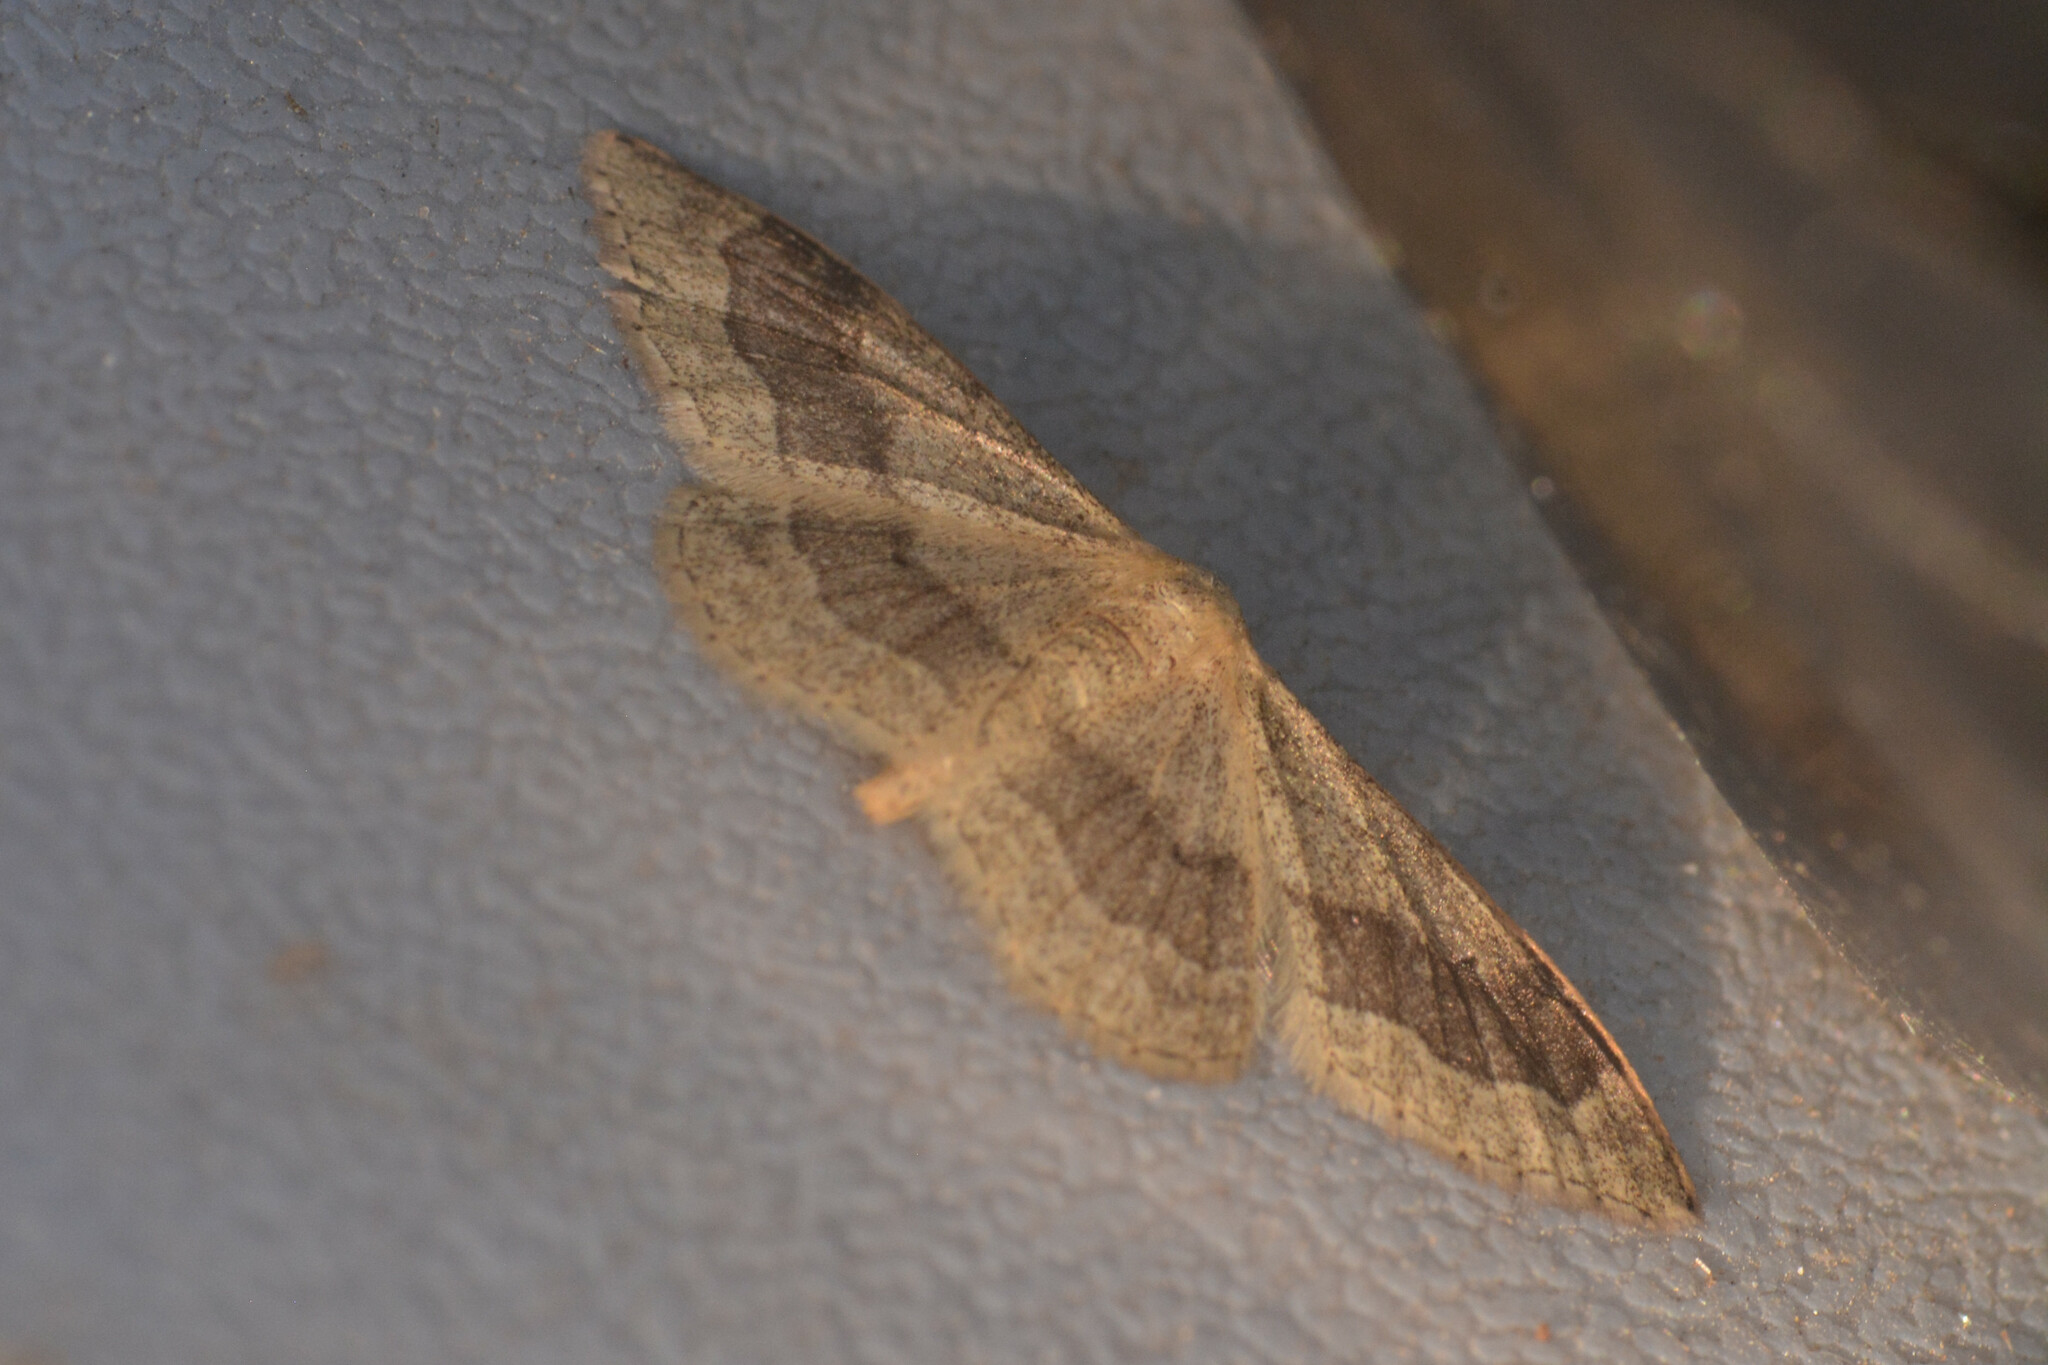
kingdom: Animalia
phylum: Arthropoda
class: Insecta
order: Lepidoptera
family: Geometridae
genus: Idaea
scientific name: Idaea aversata
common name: Riband wave
